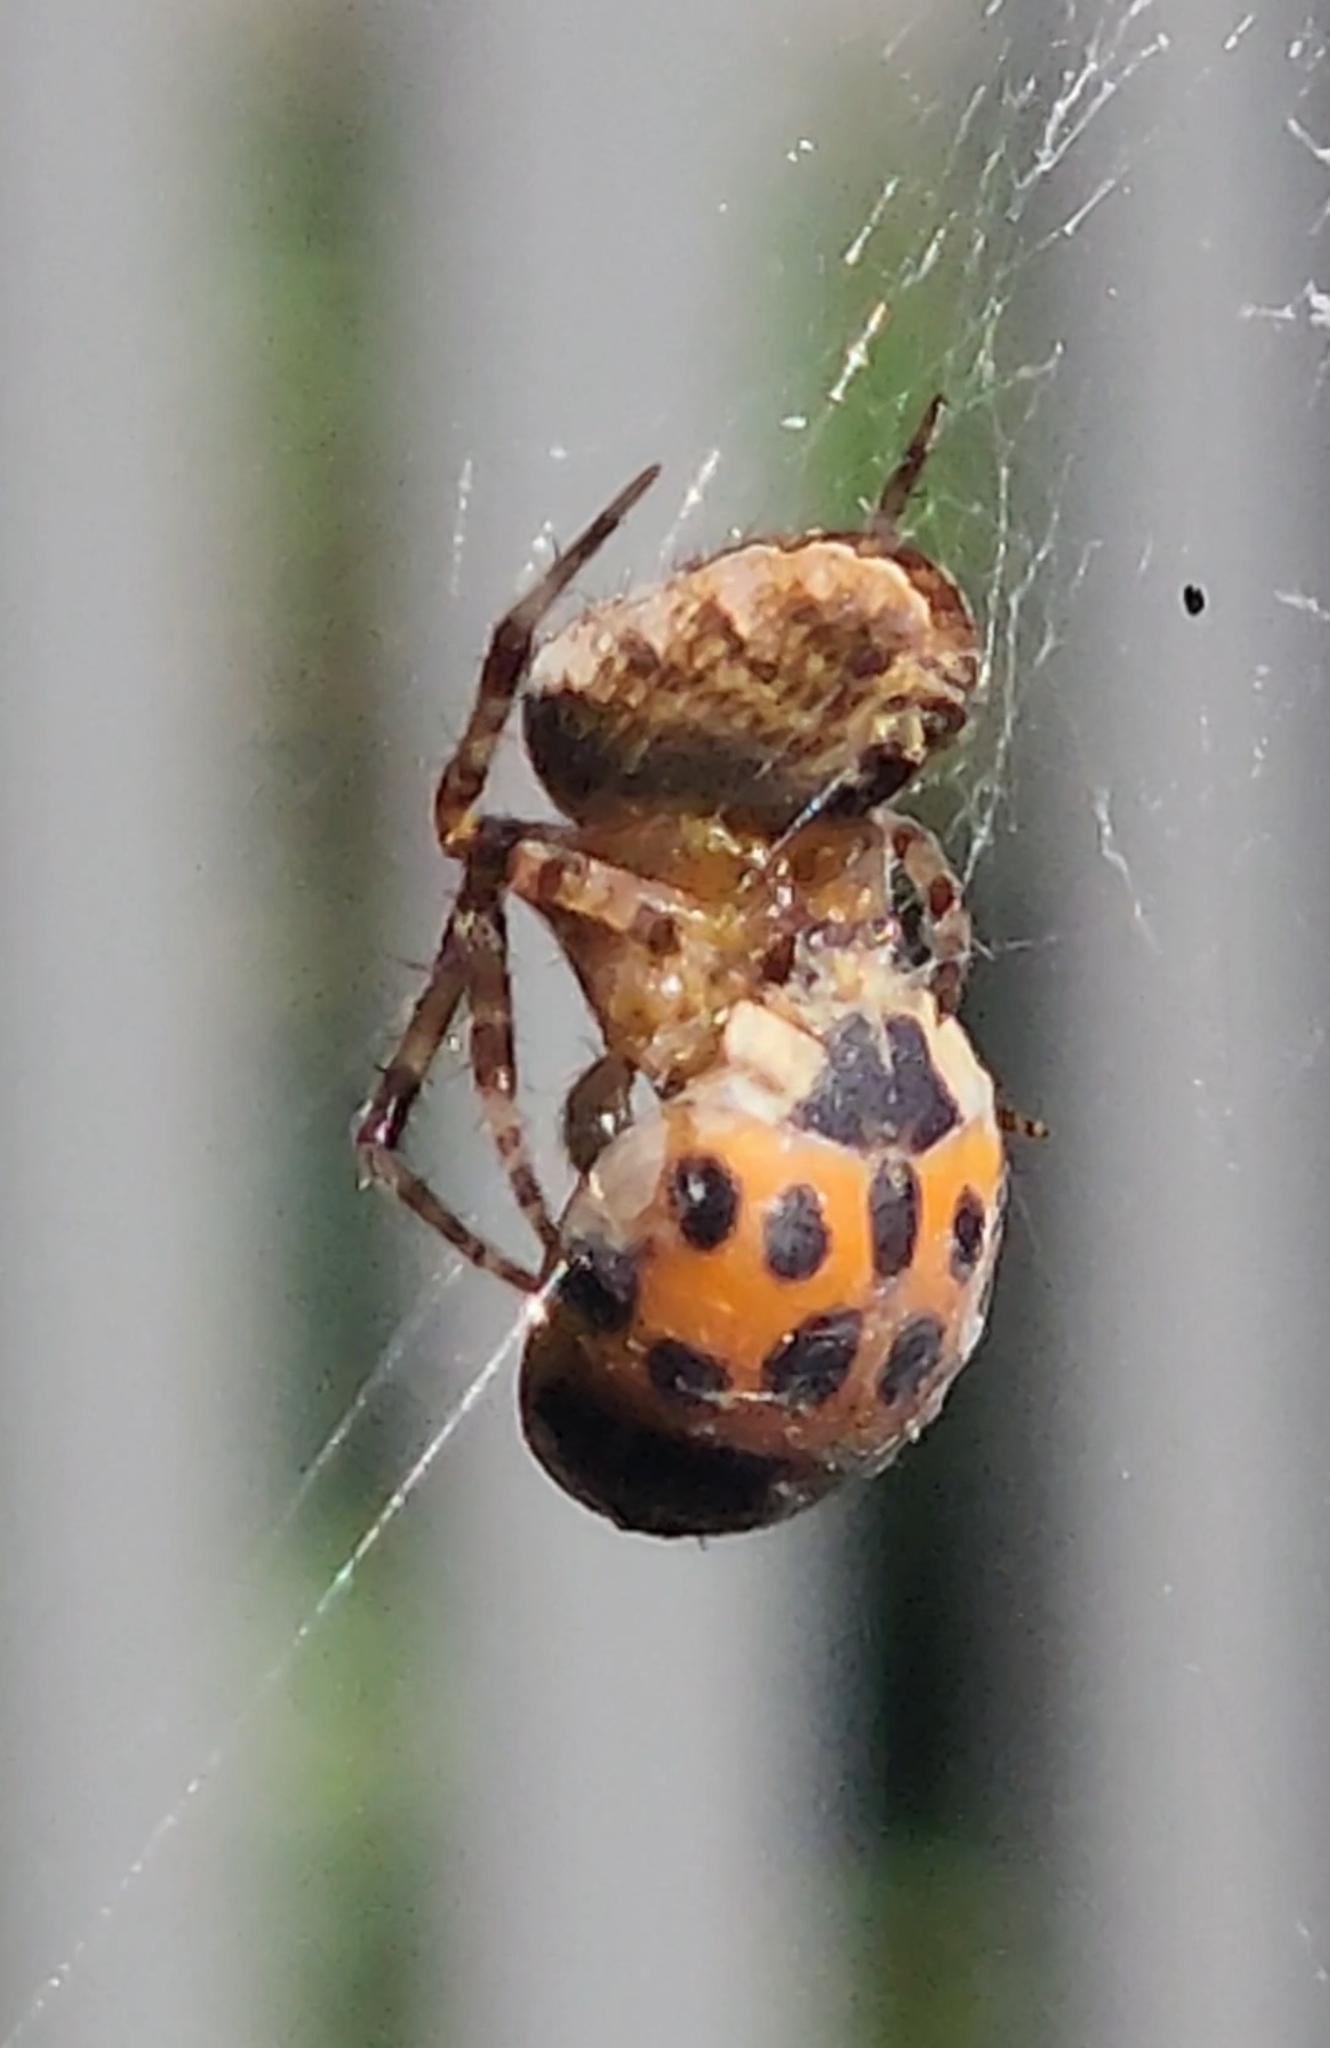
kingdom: Animalia
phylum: Arthropoda
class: Insecta
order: Coleoptera
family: Coccinellidae
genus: Harmonia
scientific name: Harmonia axyridis
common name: Harlequin ladybird
